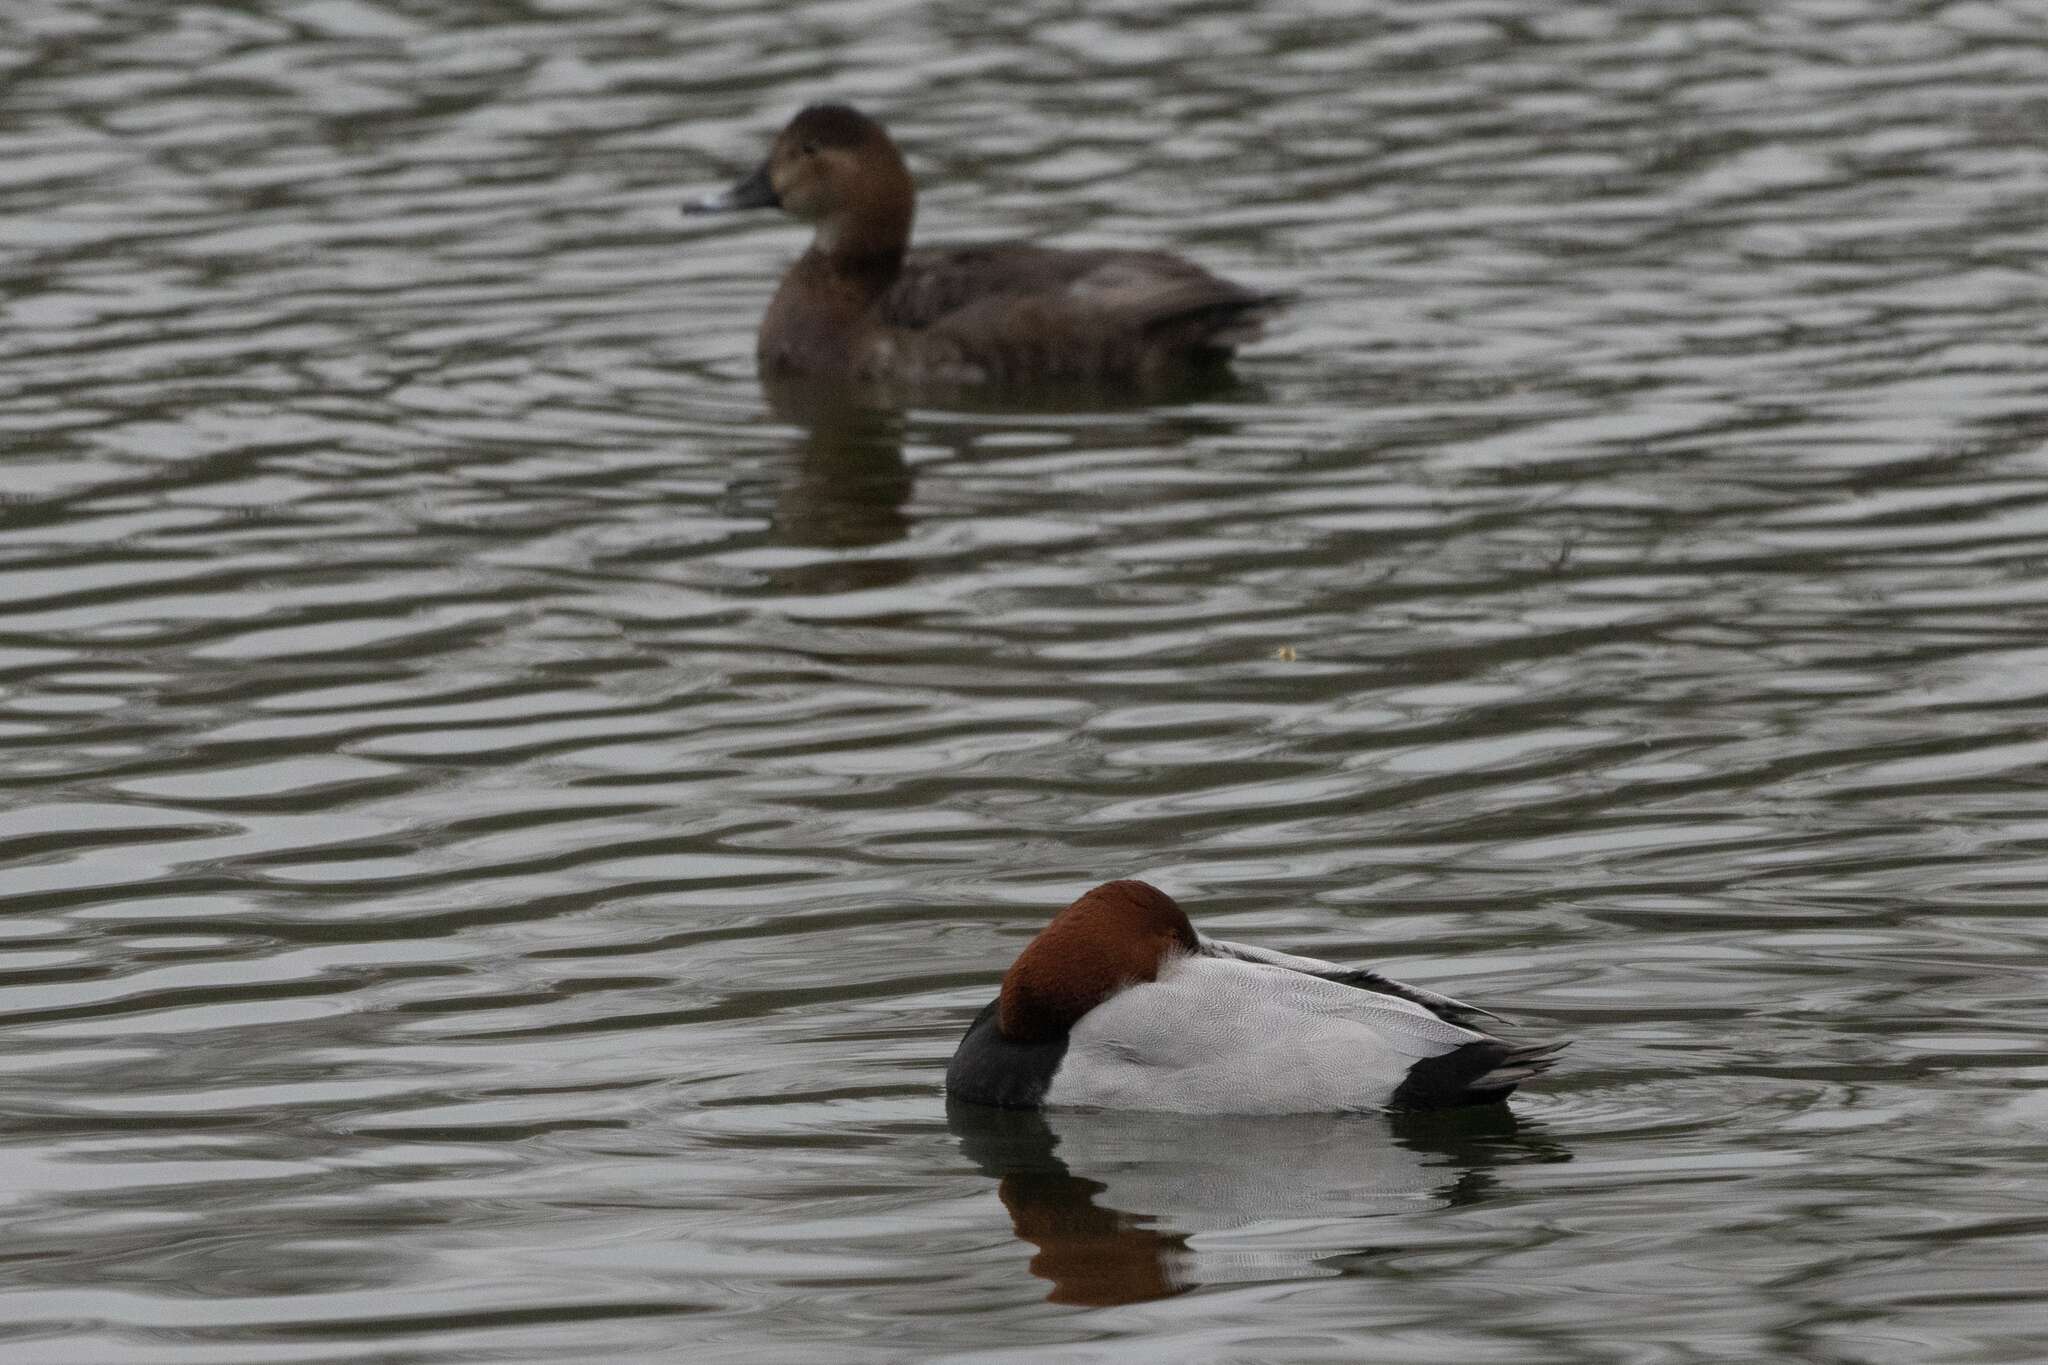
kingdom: Animalia
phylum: Chordata
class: Aves
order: Anseriformes
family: Anatidae
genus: Aythya
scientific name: Aythya ferina
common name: Common pochard
